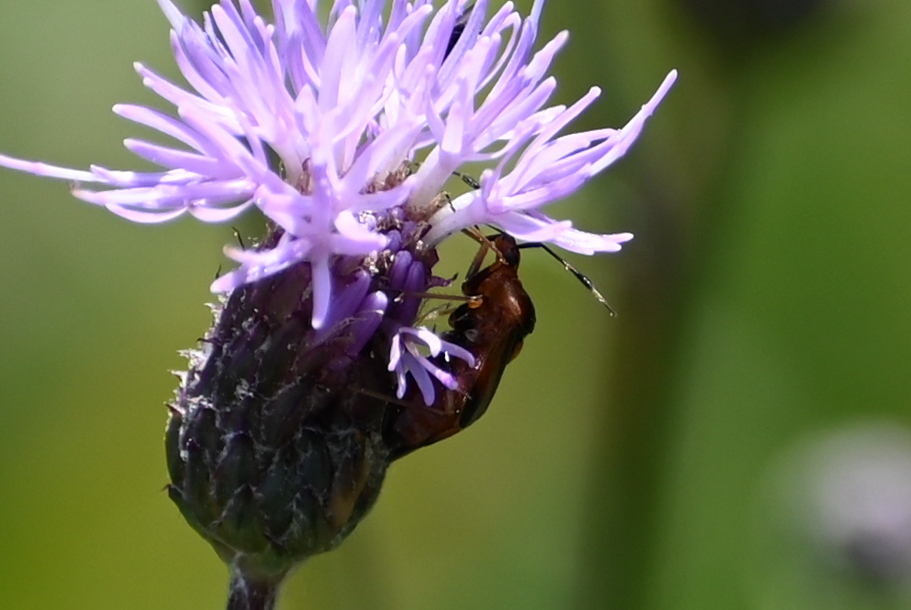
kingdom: Animalia
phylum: Arthropoda
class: Insecta
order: Hemiptera
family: Miridae
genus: Deraeocoris
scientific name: Deraeocoris ruber
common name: Plant bug
